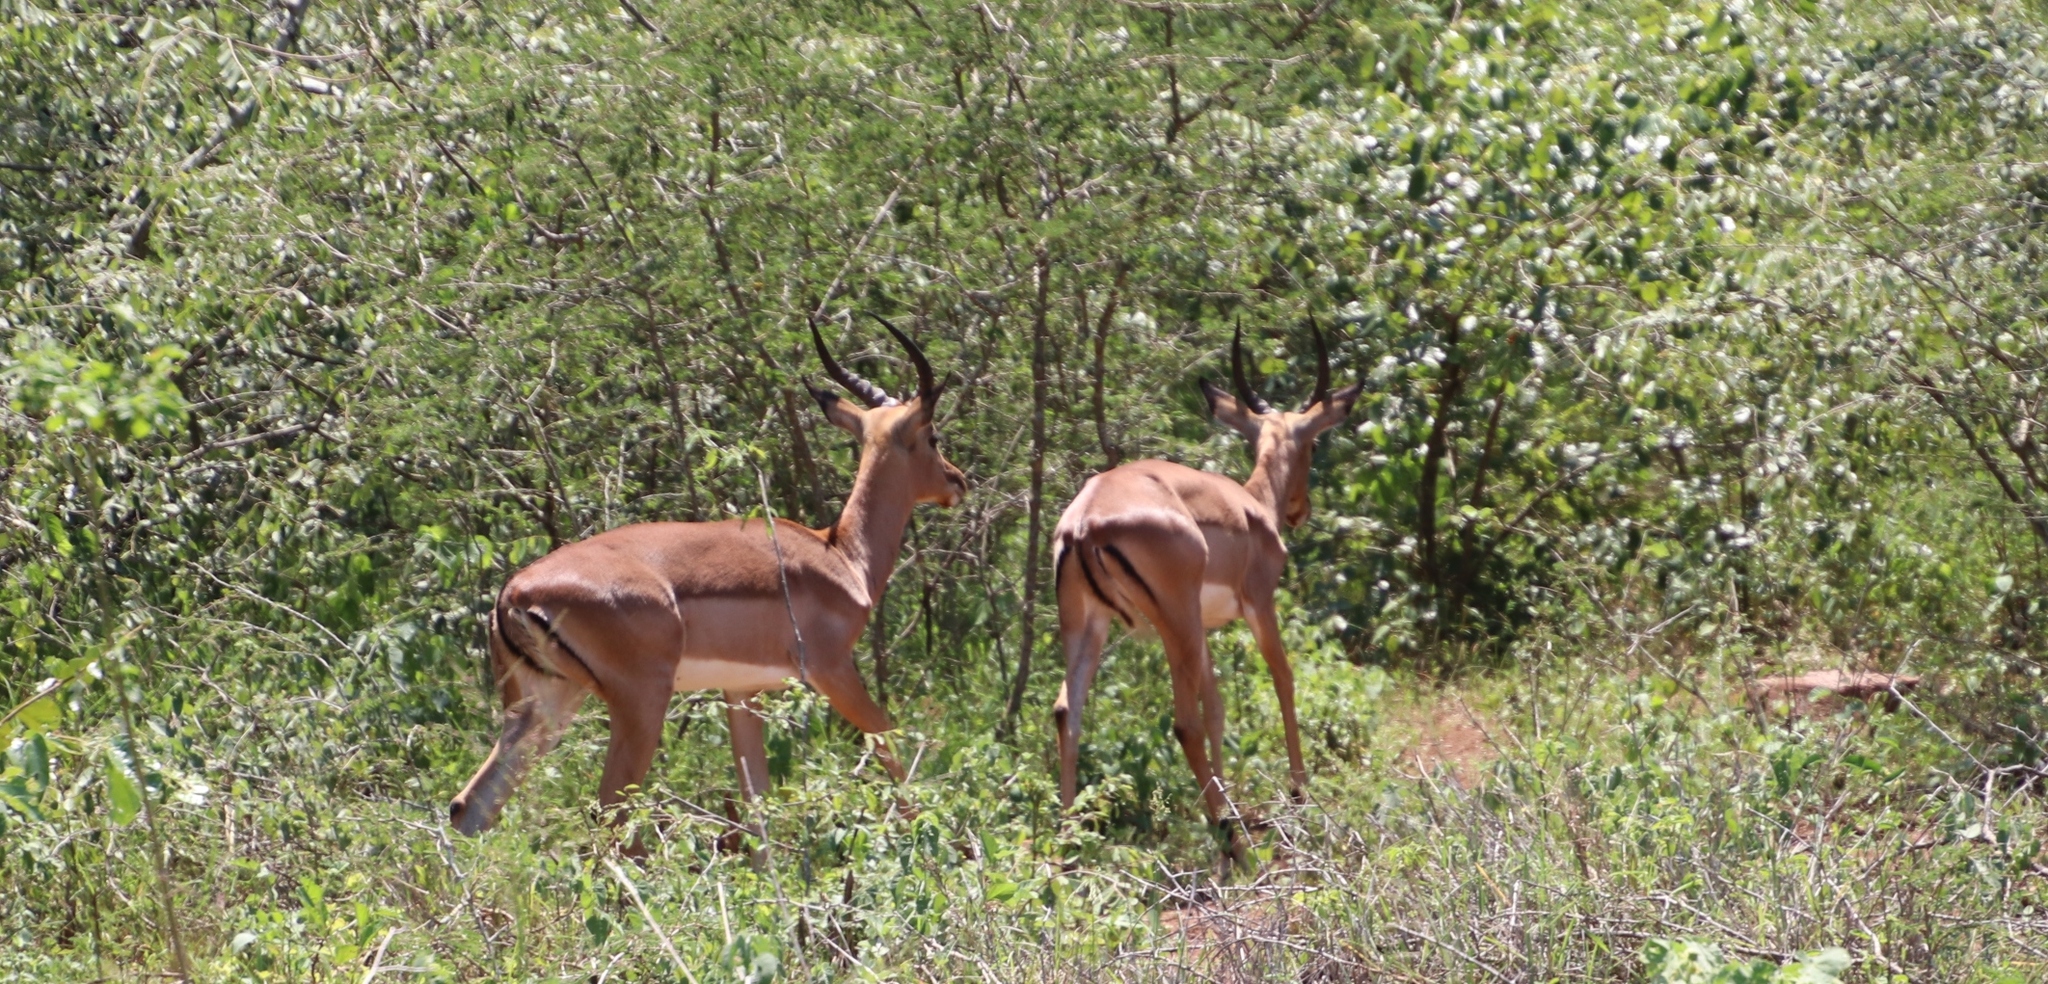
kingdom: Animalia
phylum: Chordata
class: Mammalia
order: Artiodactyla
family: Bovidae
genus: Aepyceros
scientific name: Aepyceros melampus
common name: Impala
